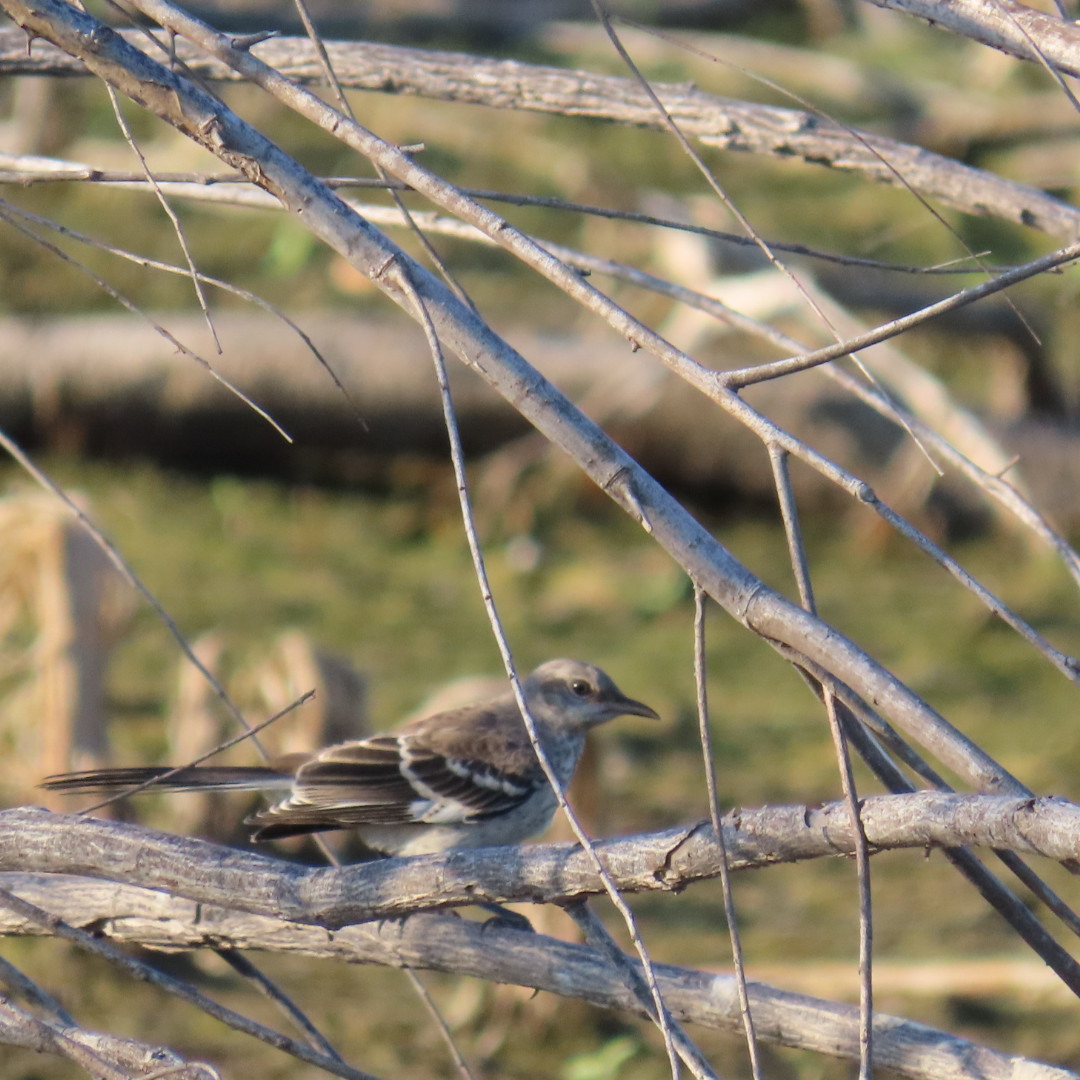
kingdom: Animalia
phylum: Chordata
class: Aves
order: Passeriformes
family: Mimidae
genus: Mimus
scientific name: Mimus polyglottos
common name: Northern mockingbird
